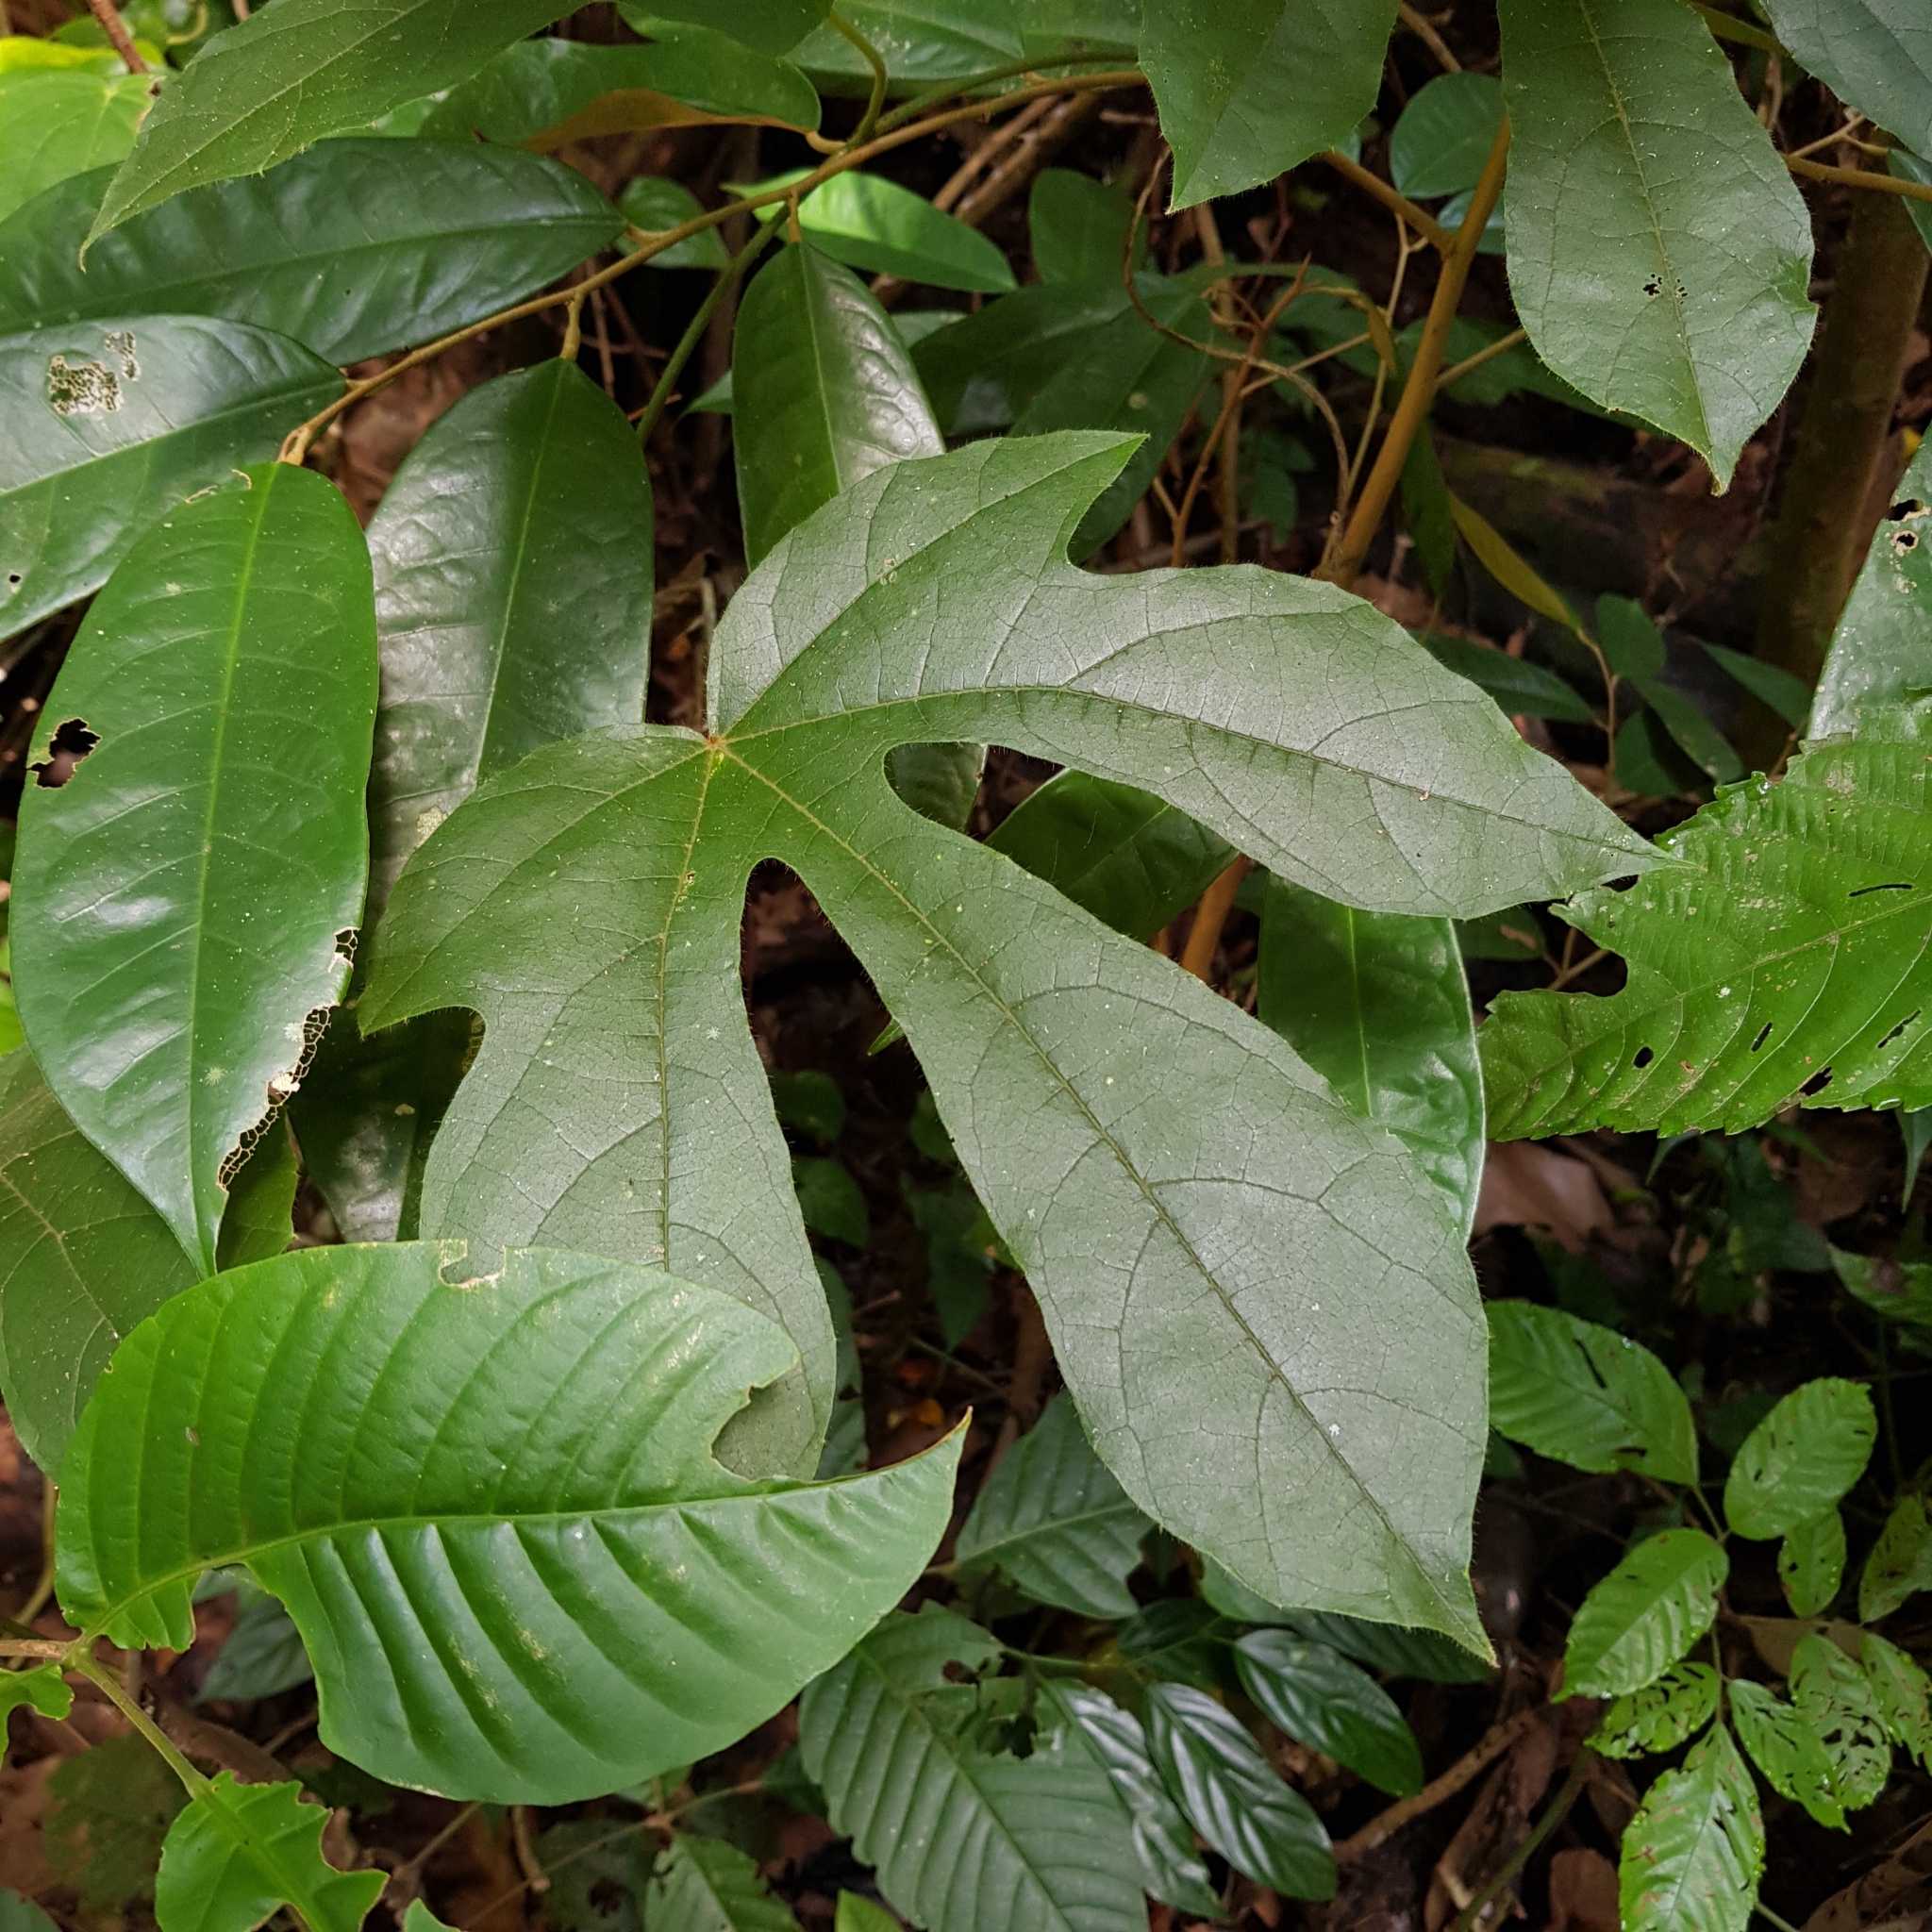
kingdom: Plantae
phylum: Tracheophyta
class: Magnoliopsida
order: Icacinales
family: Icacinaceae
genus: Phytocrene
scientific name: Phytocrene bracteata
